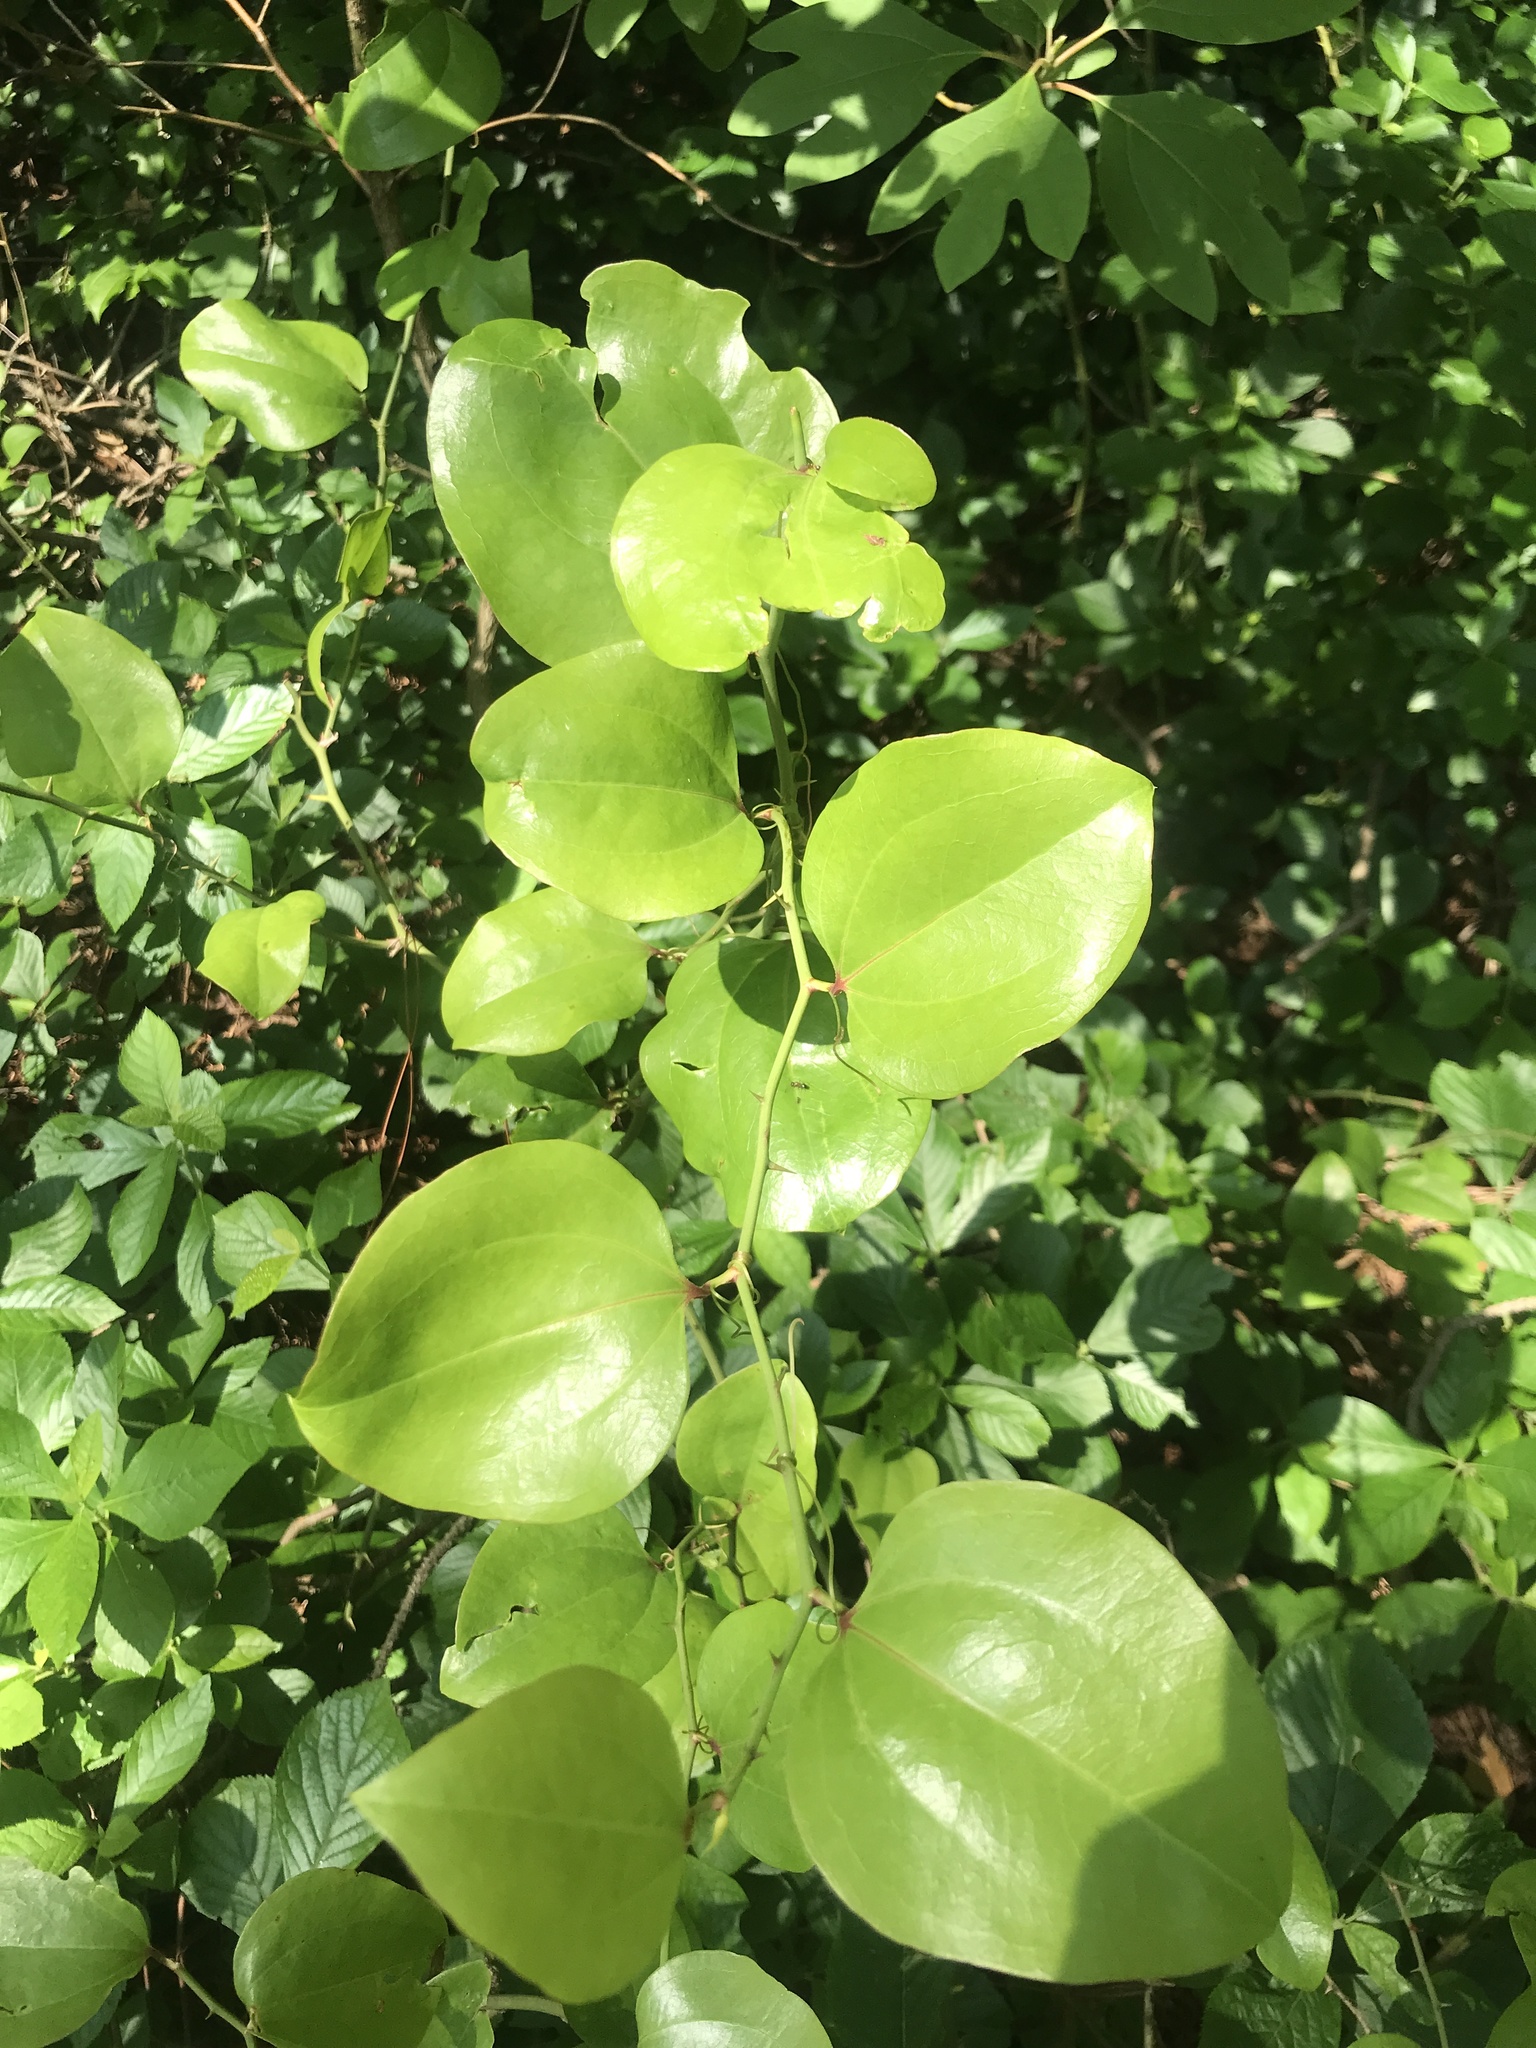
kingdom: Plantae
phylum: Tracheophyta
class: Liliopsida
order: Liliales
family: Smilacaceae
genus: Smilax
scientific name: Smilax rotundifolia
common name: Bullbriar
